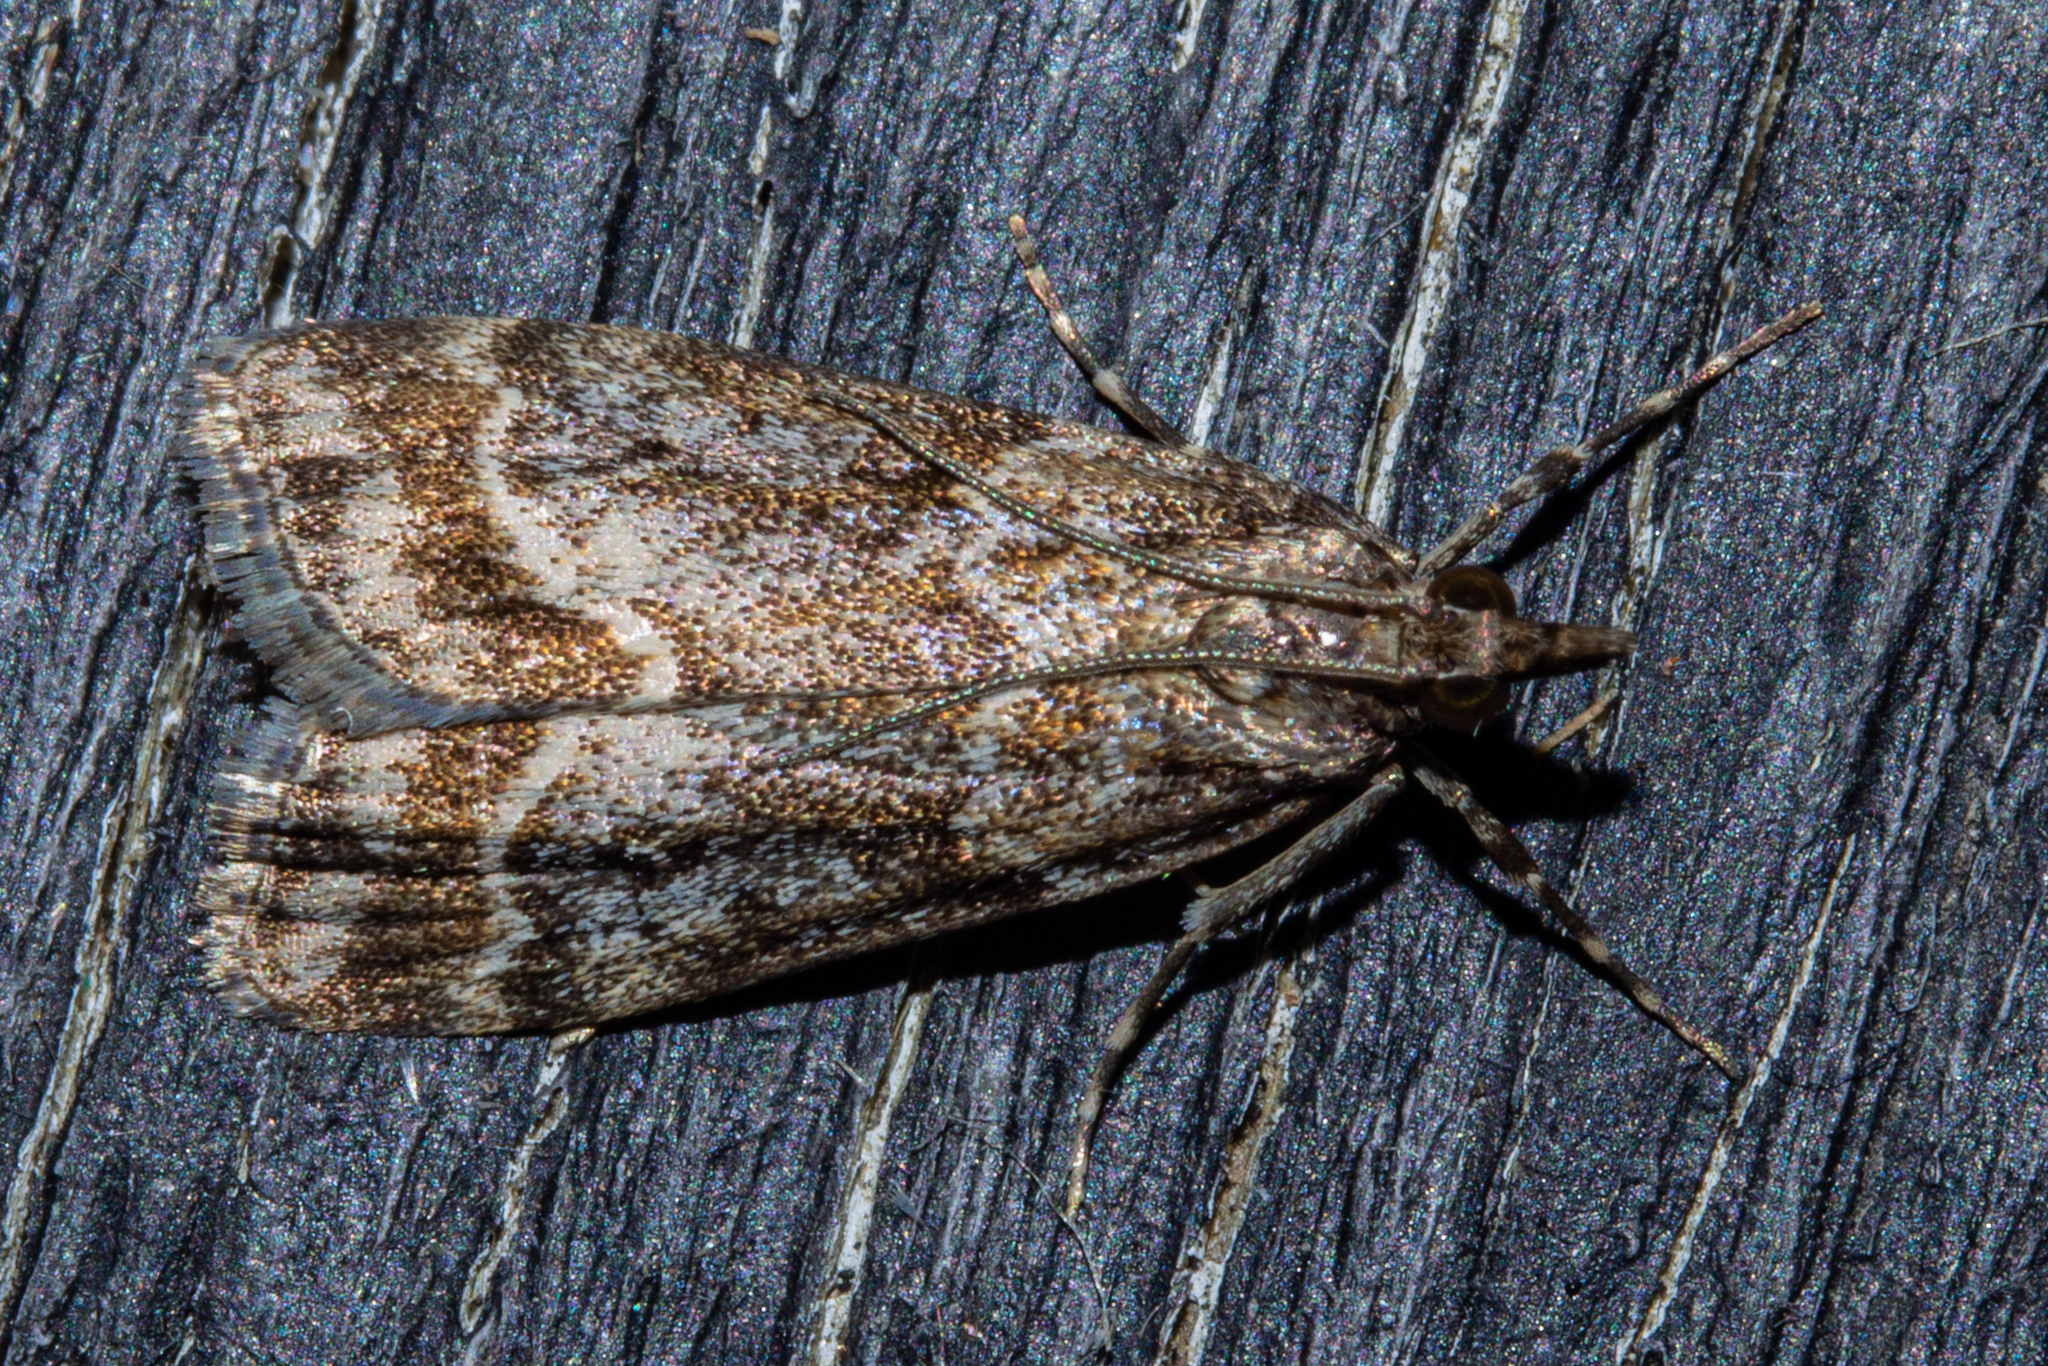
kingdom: Animalia
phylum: Arthropoda
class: Insecta
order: Lepidoptera
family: Crambidae
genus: Eudonia
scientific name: Eudonia legnota
